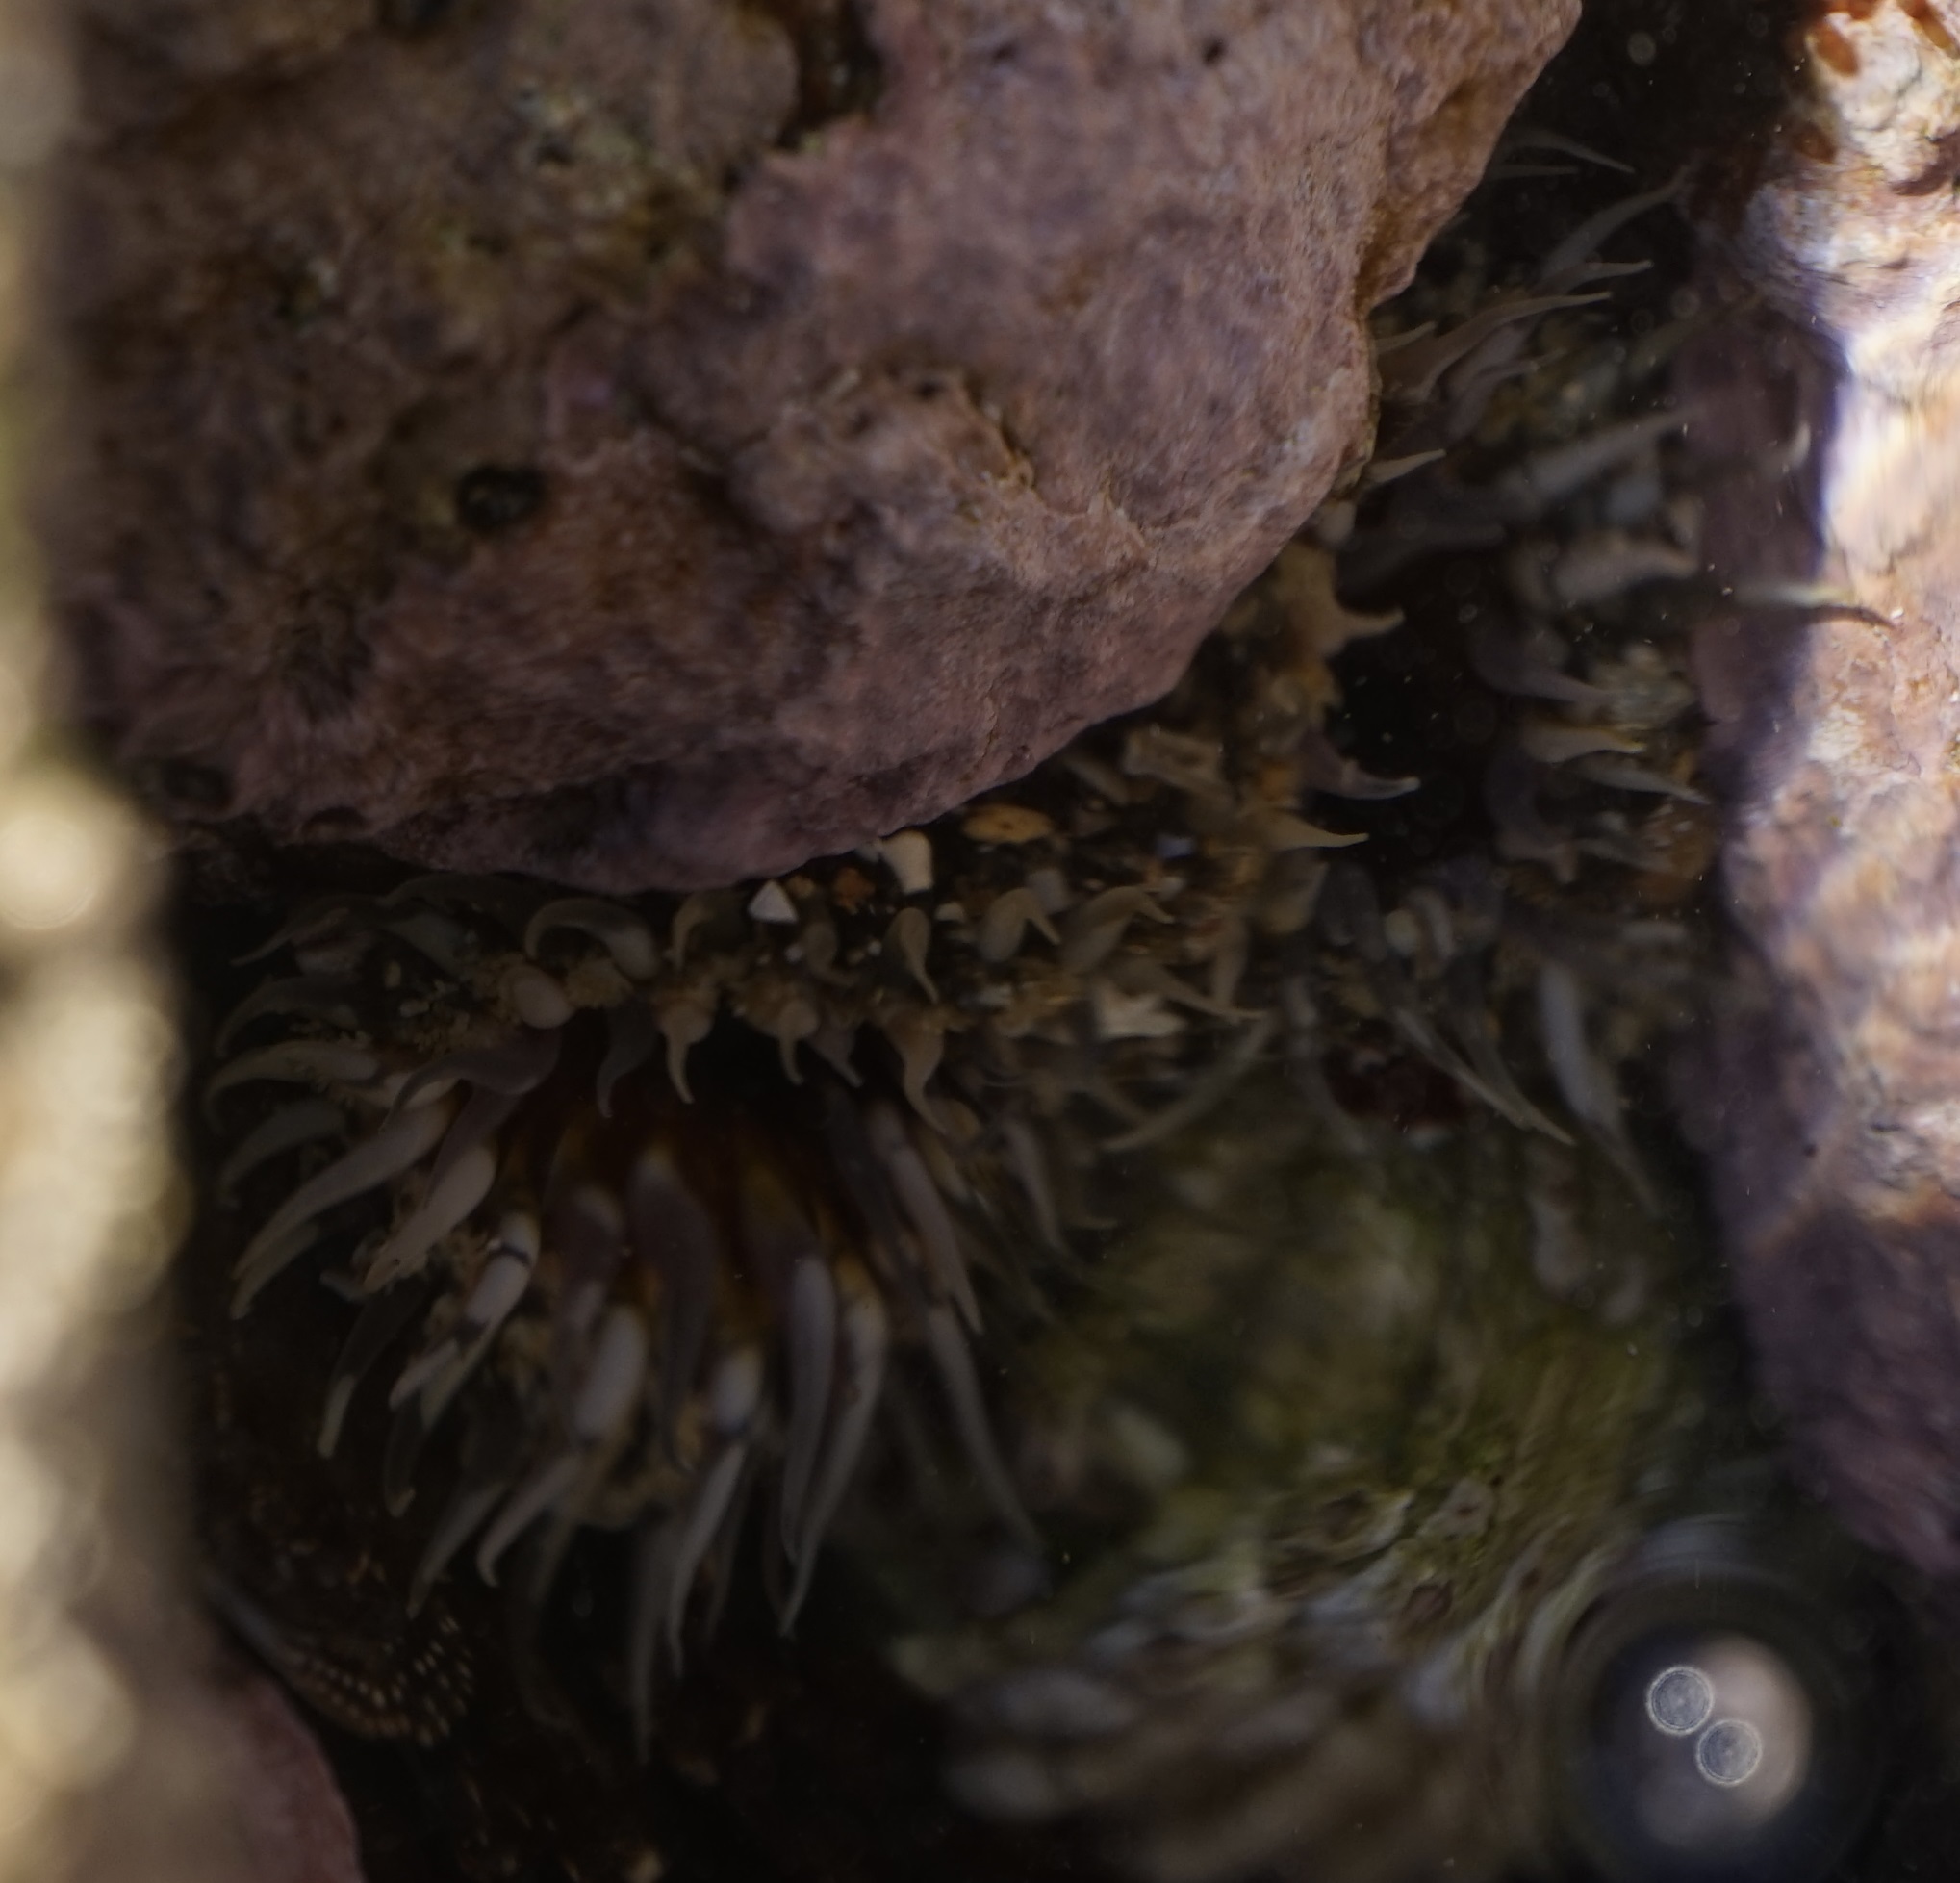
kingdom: Animalia
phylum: Cnidaria
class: Anthozoa
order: Actiniaria
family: Actiniidae
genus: Oulactis
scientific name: Oulactis muscosa
